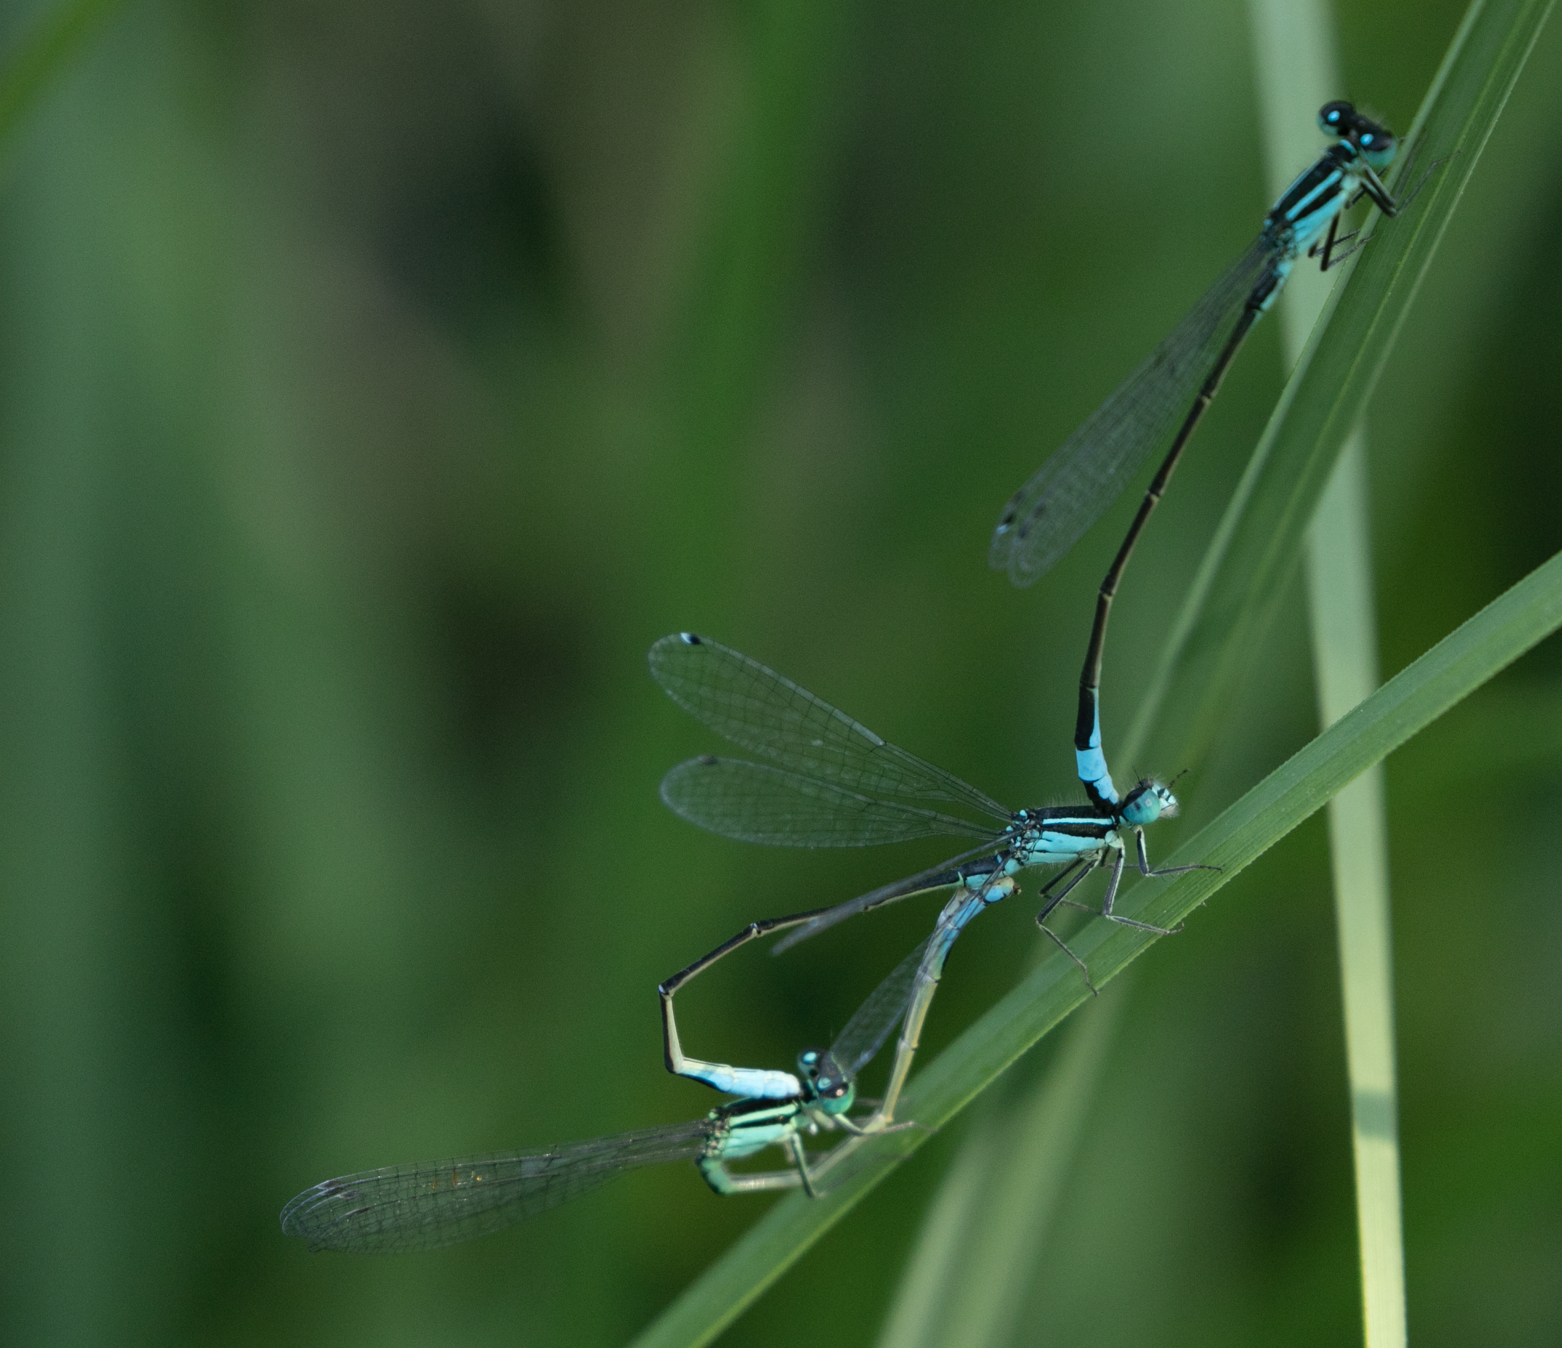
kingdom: Animalia
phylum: Arthropoda
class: Insecta
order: Odonata
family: Coenagrionidae
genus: Ischnura
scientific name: Ischnura elegans
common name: Blue-tailed damselfly
